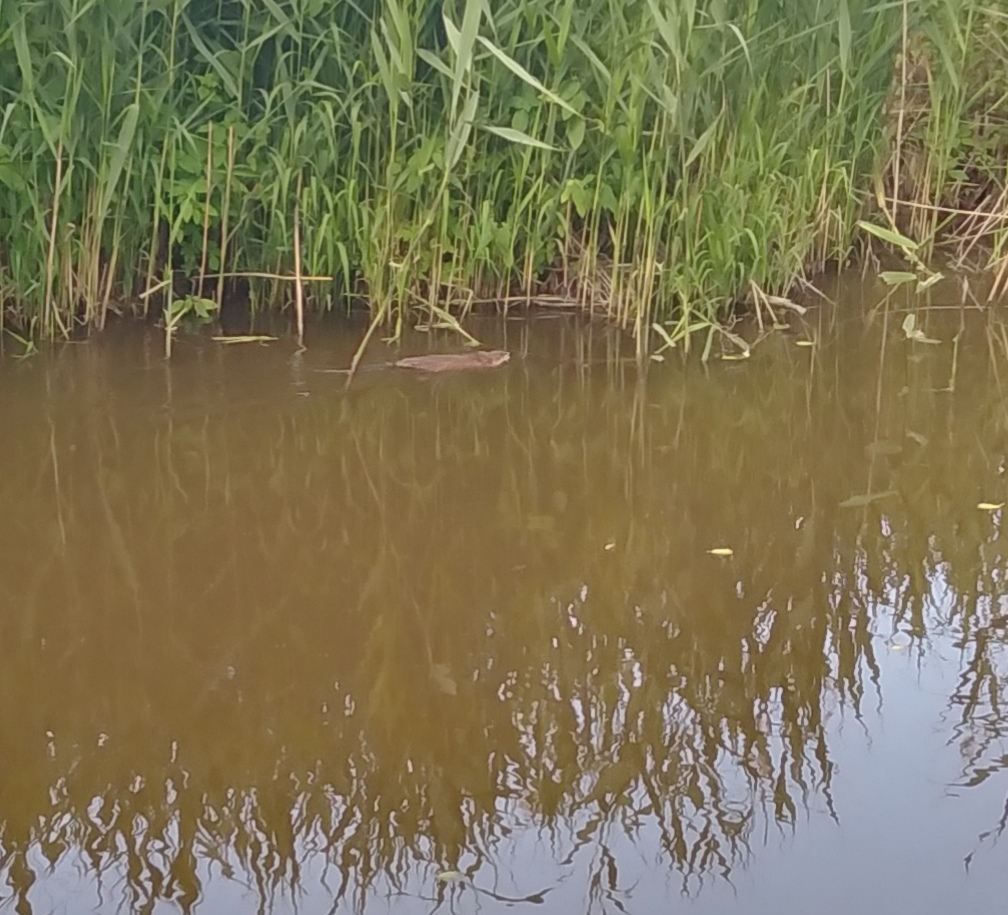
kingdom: Animalia
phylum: Chordata
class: Mammalia
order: Rodentia
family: Cricetidae
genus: Ondatra
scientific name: Ondatra zibethicus
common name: Muskrat
